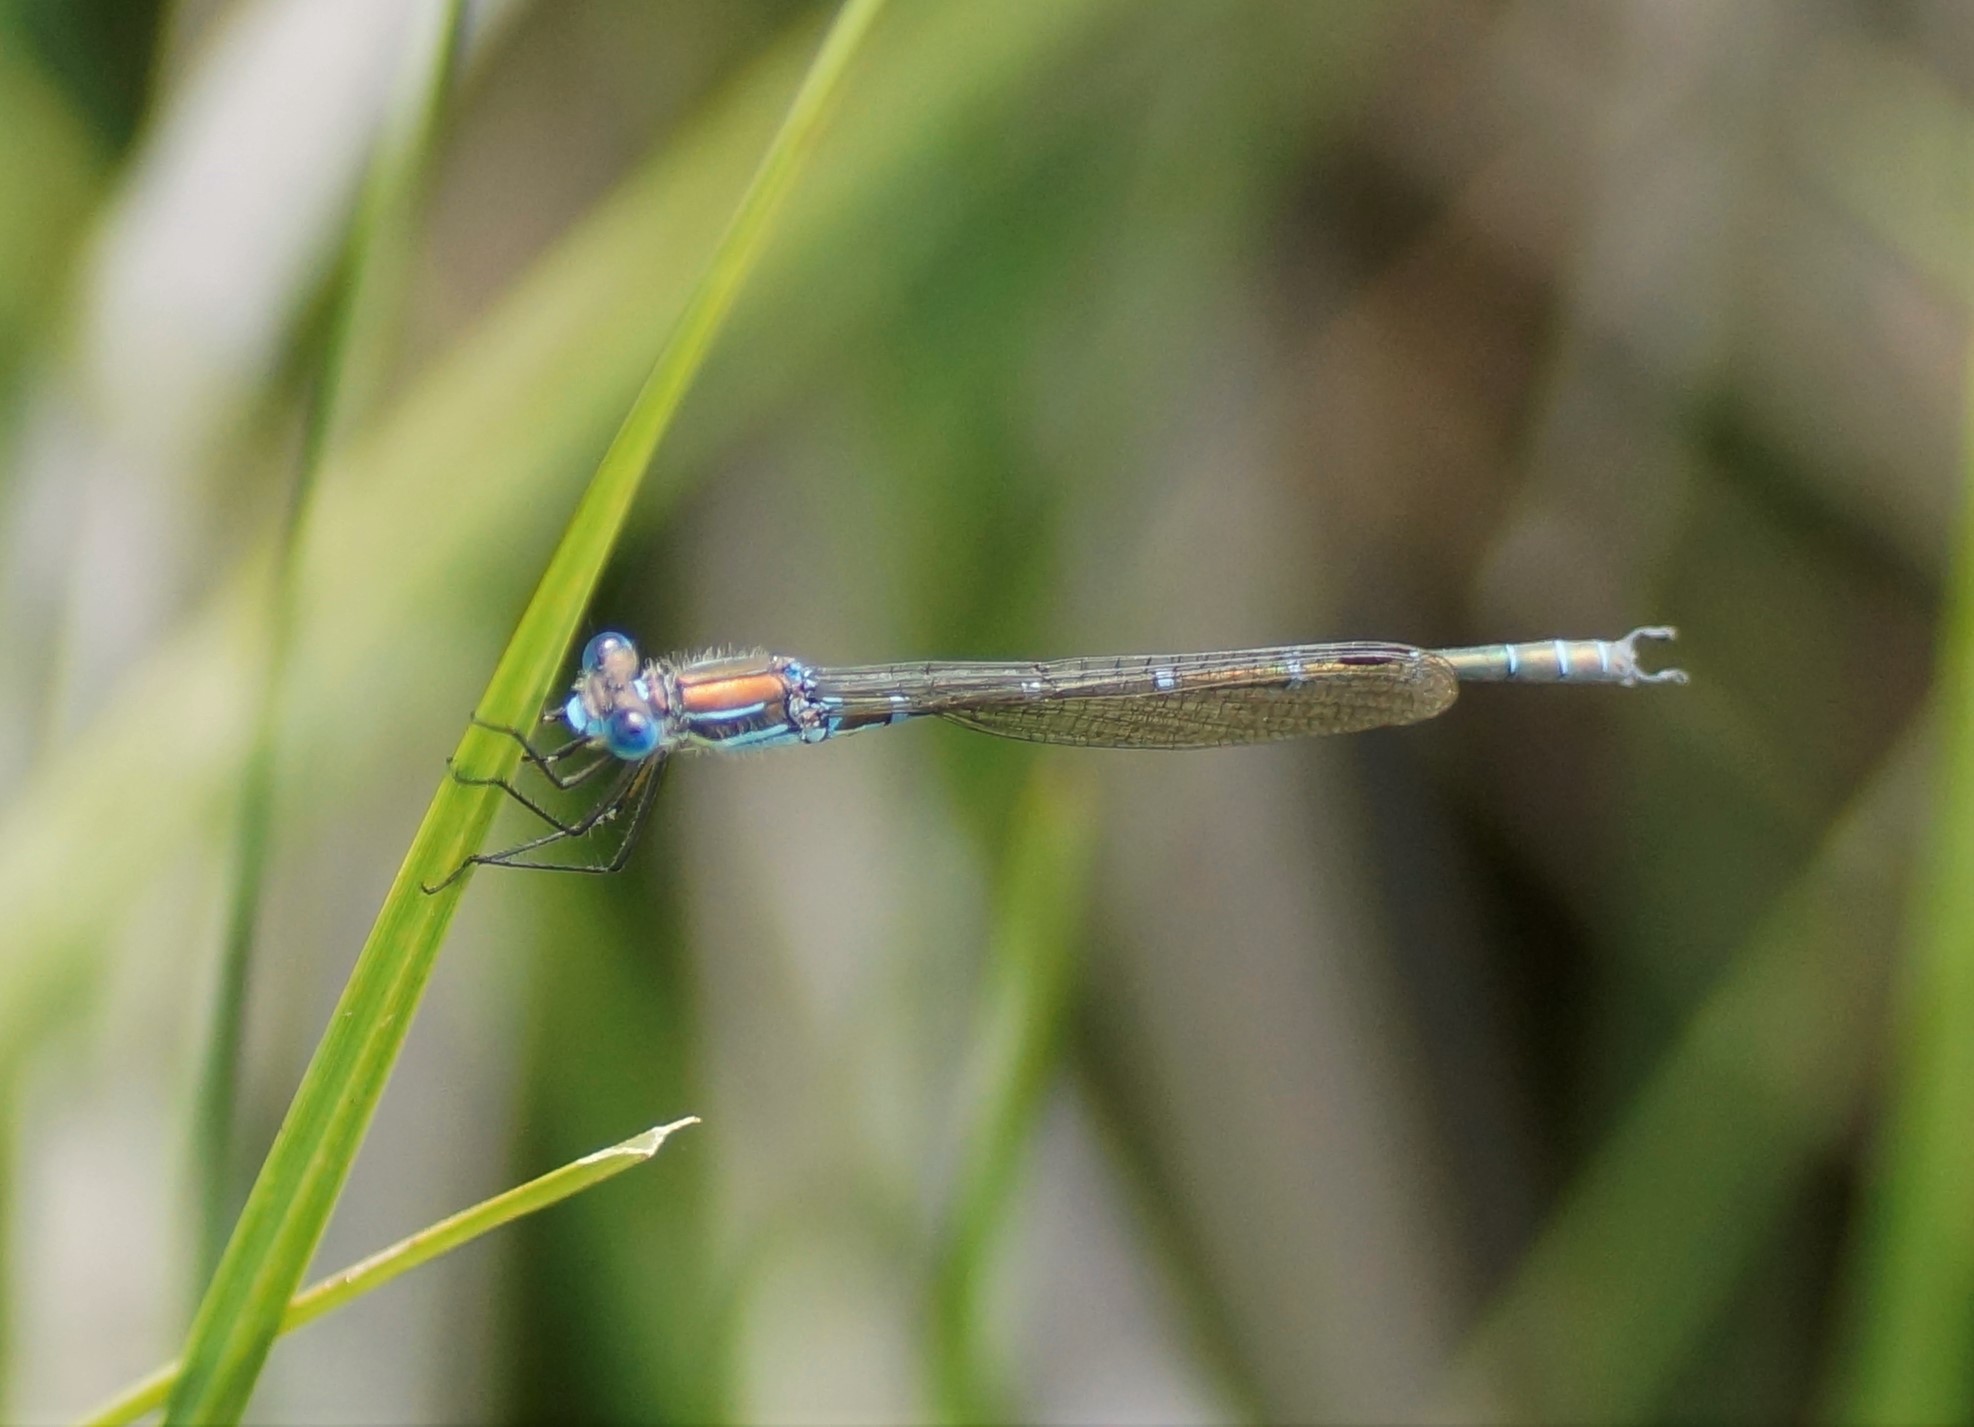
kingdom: Animalia
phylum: Arthropoda
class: Insecta
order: Odonata
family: Lestidae
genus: Austrolestes
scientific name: Austrolestes cingulatus
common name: Metallic ringtail
